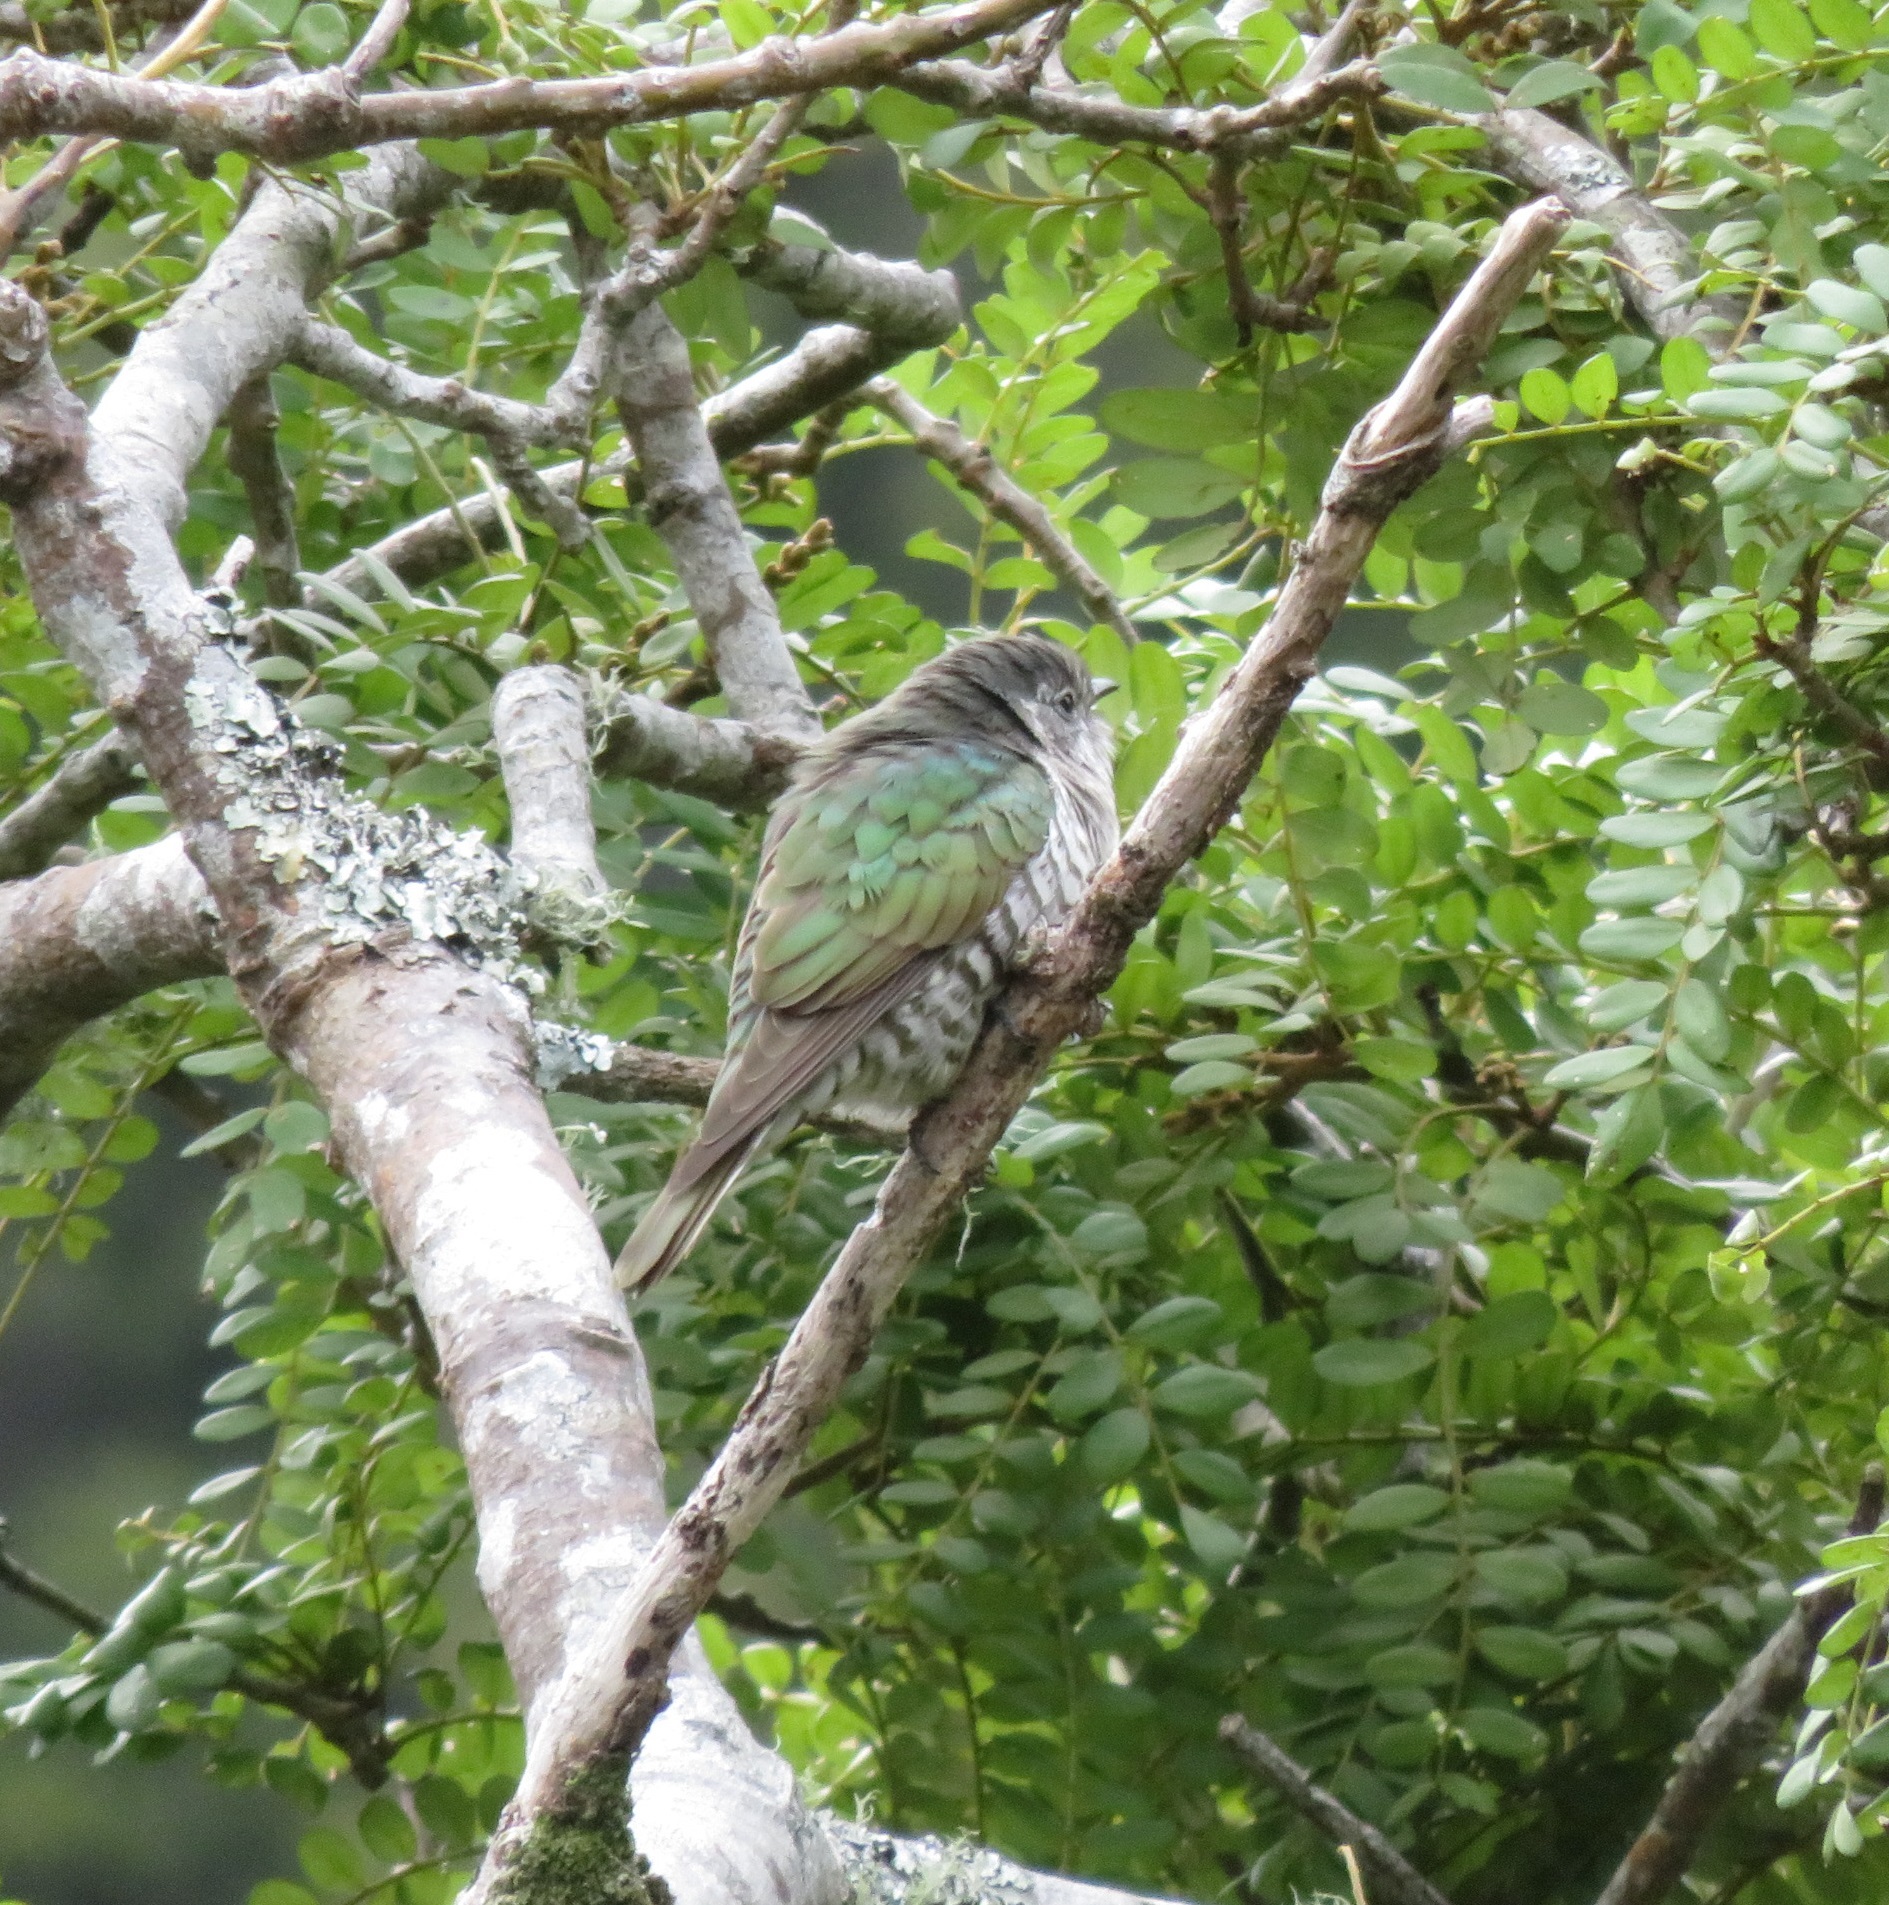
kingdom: Animalia
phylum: Chordata
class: Aves
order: Cuculiformes
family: Cuculidae
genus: Chrysococcyx
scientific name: Chrysococcyx lucidus
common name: Shining bronze cuckoo
